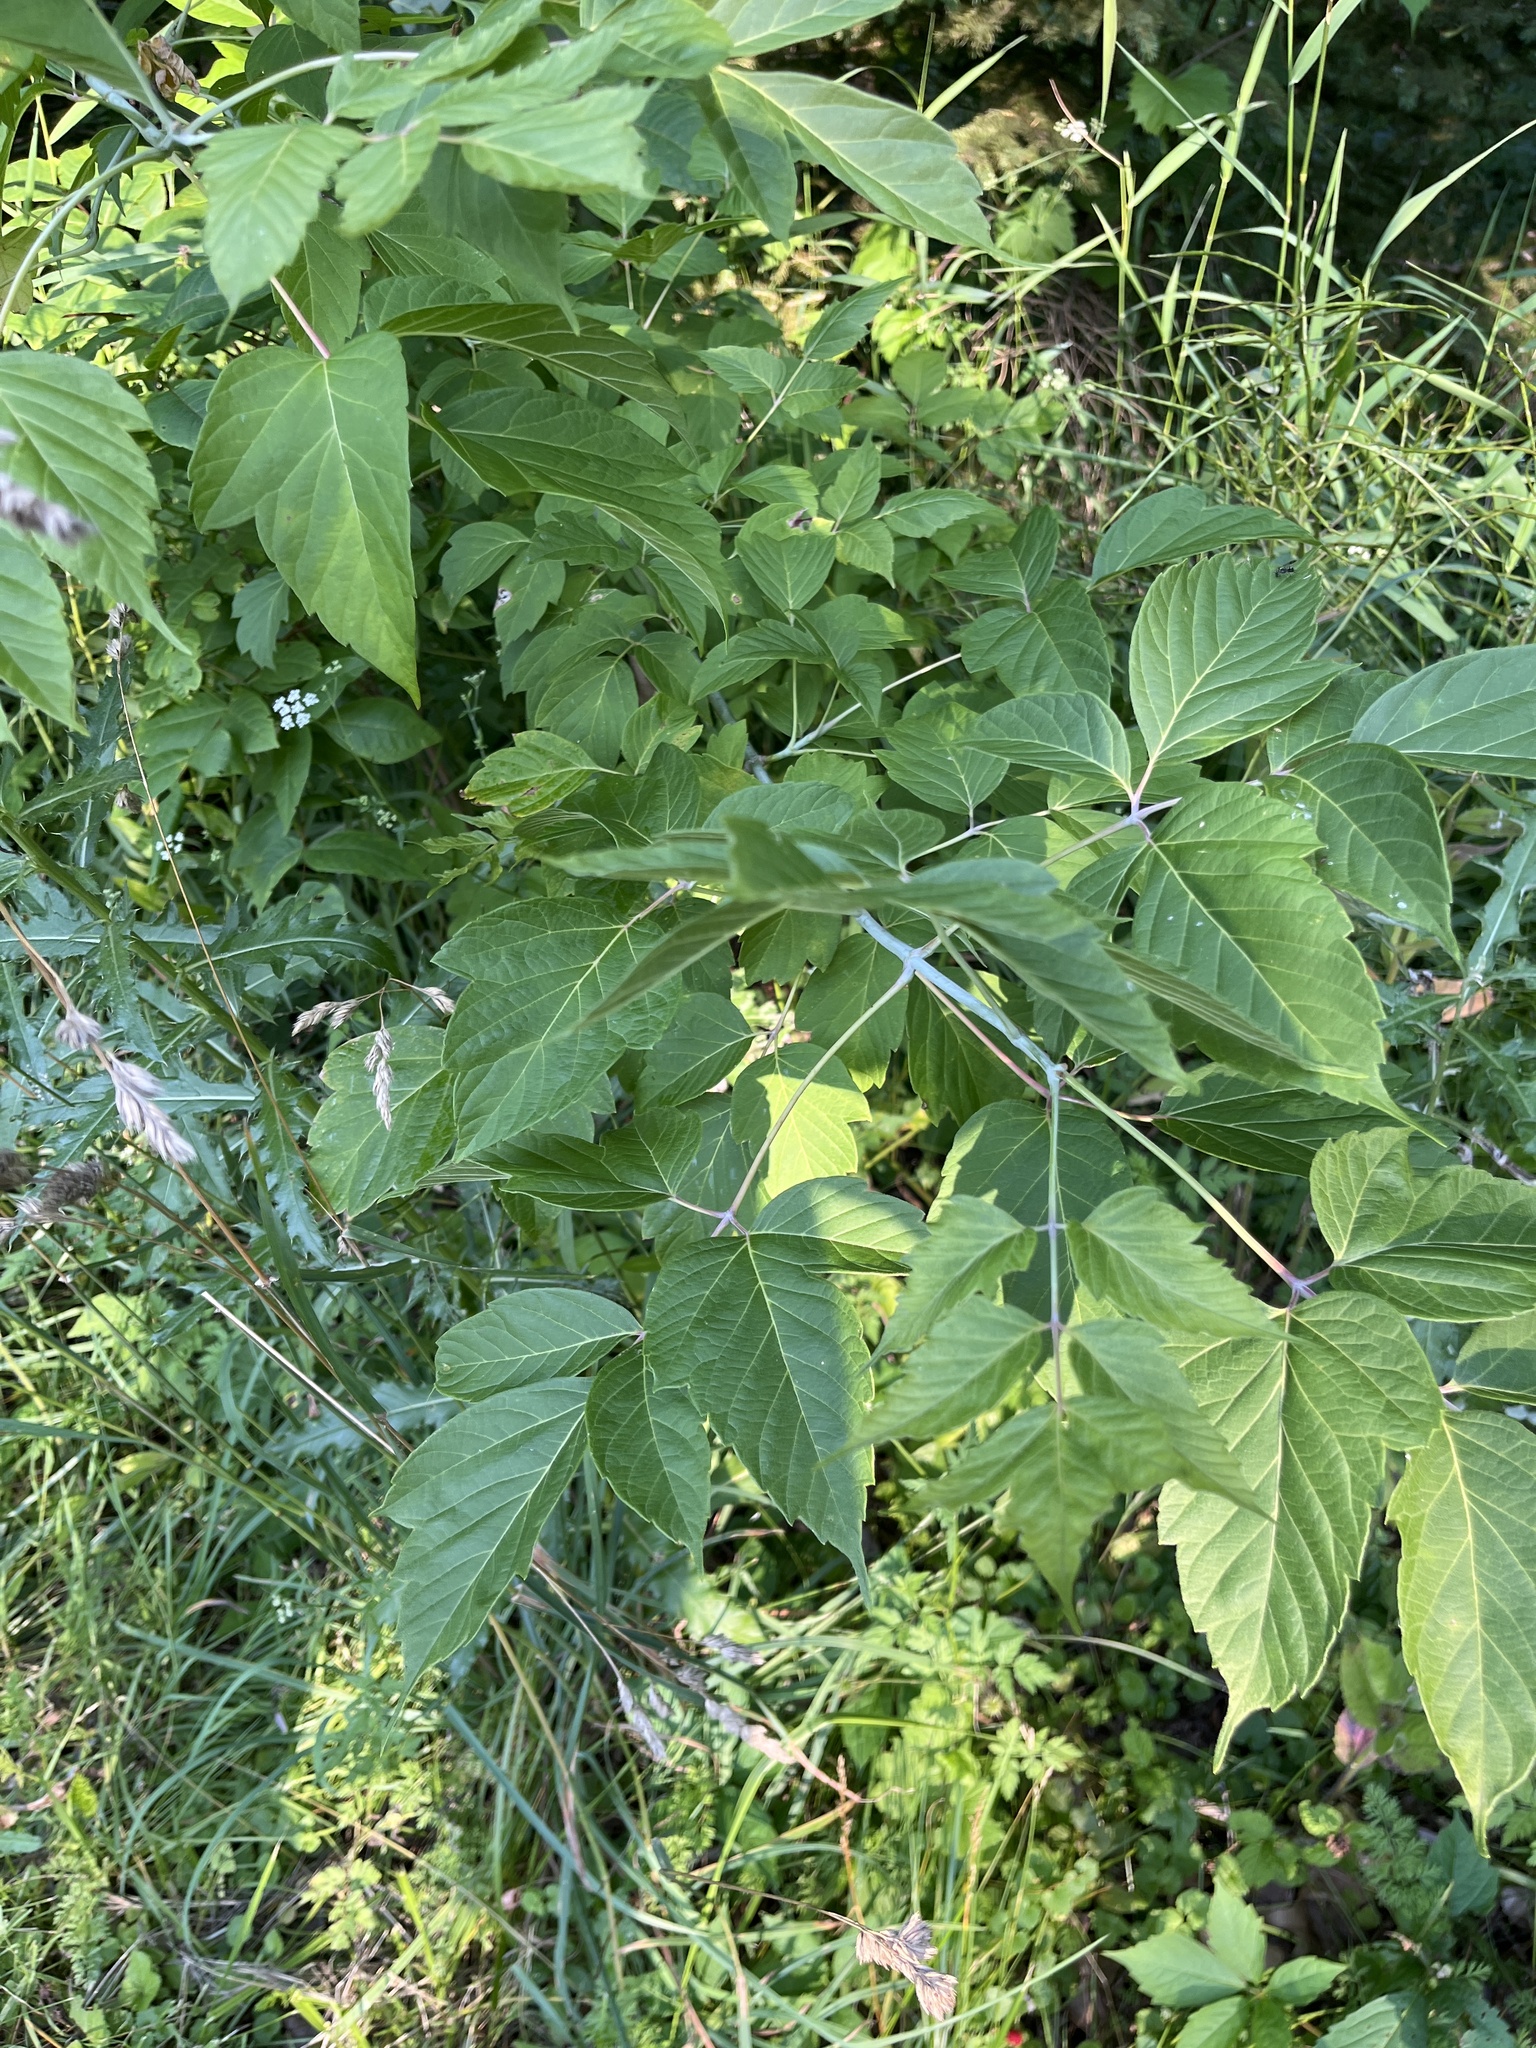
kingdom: Plantae
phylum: Tracheophyta
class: Magnoliopsida
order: Sapindales
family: Sapindaceae
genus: Acer
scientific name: Acer negundo
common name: Ashleaf maple
